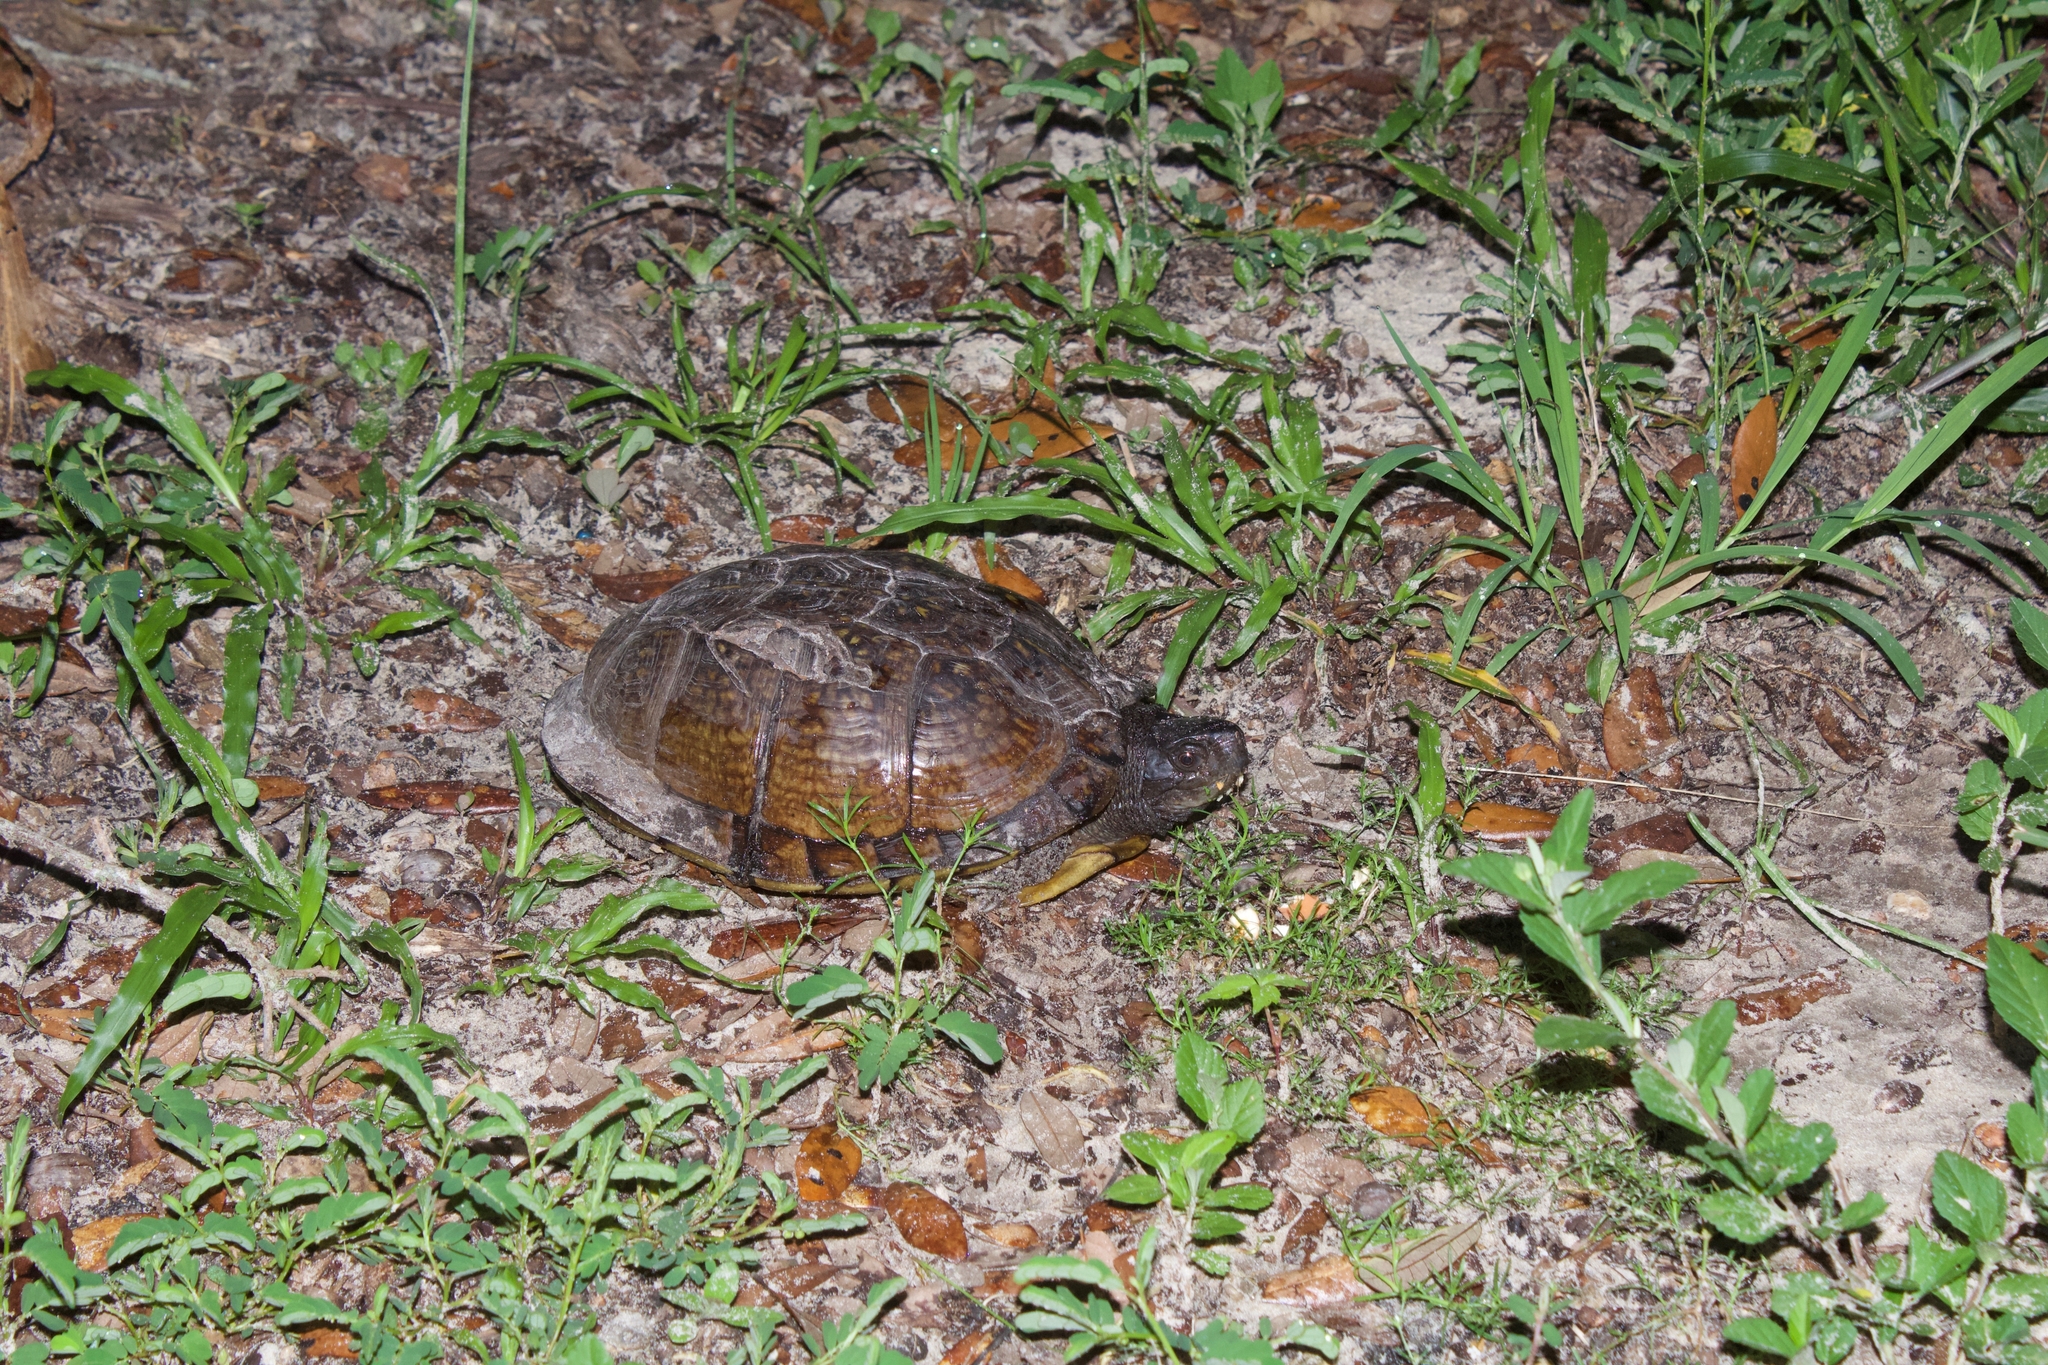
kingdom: Animalia
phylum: Chordata
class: Testudines
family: Emydidae
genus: Terrapene
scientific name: Terrapene carolina
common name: Common box turtle
